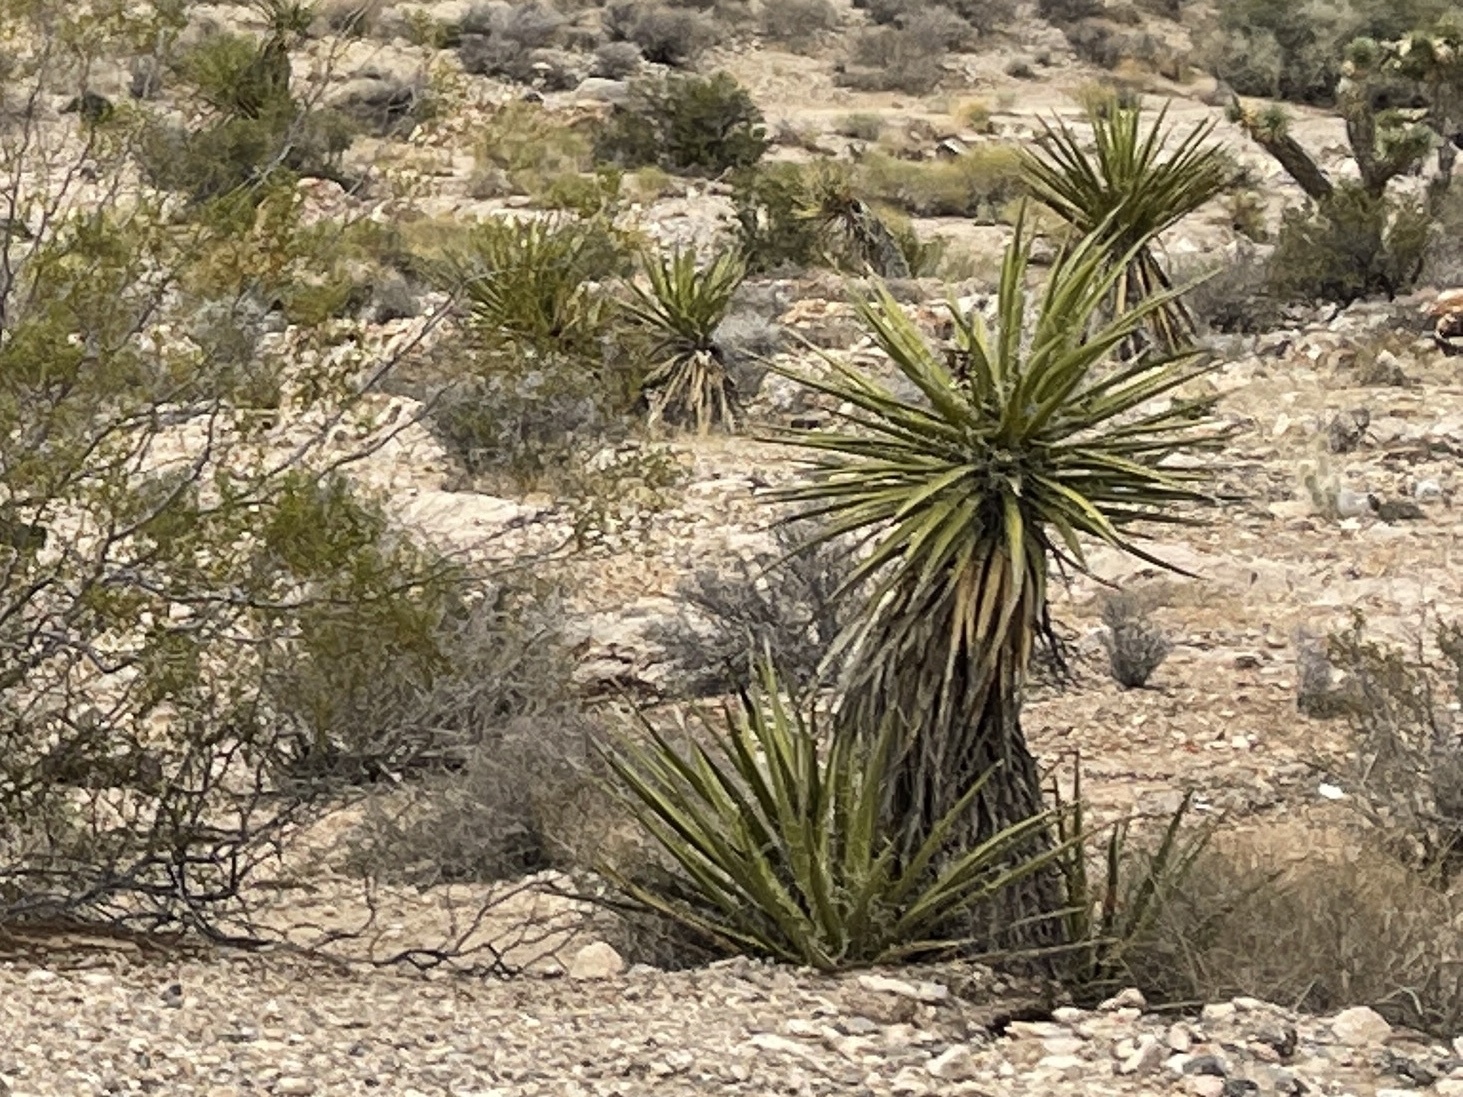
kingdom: Plantae
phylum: Tracheophyta
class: Liliopsida
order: Asparagales
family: Asparagaceae
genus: Yucca
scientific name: Yucca schidigera
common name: Mojave yucca
